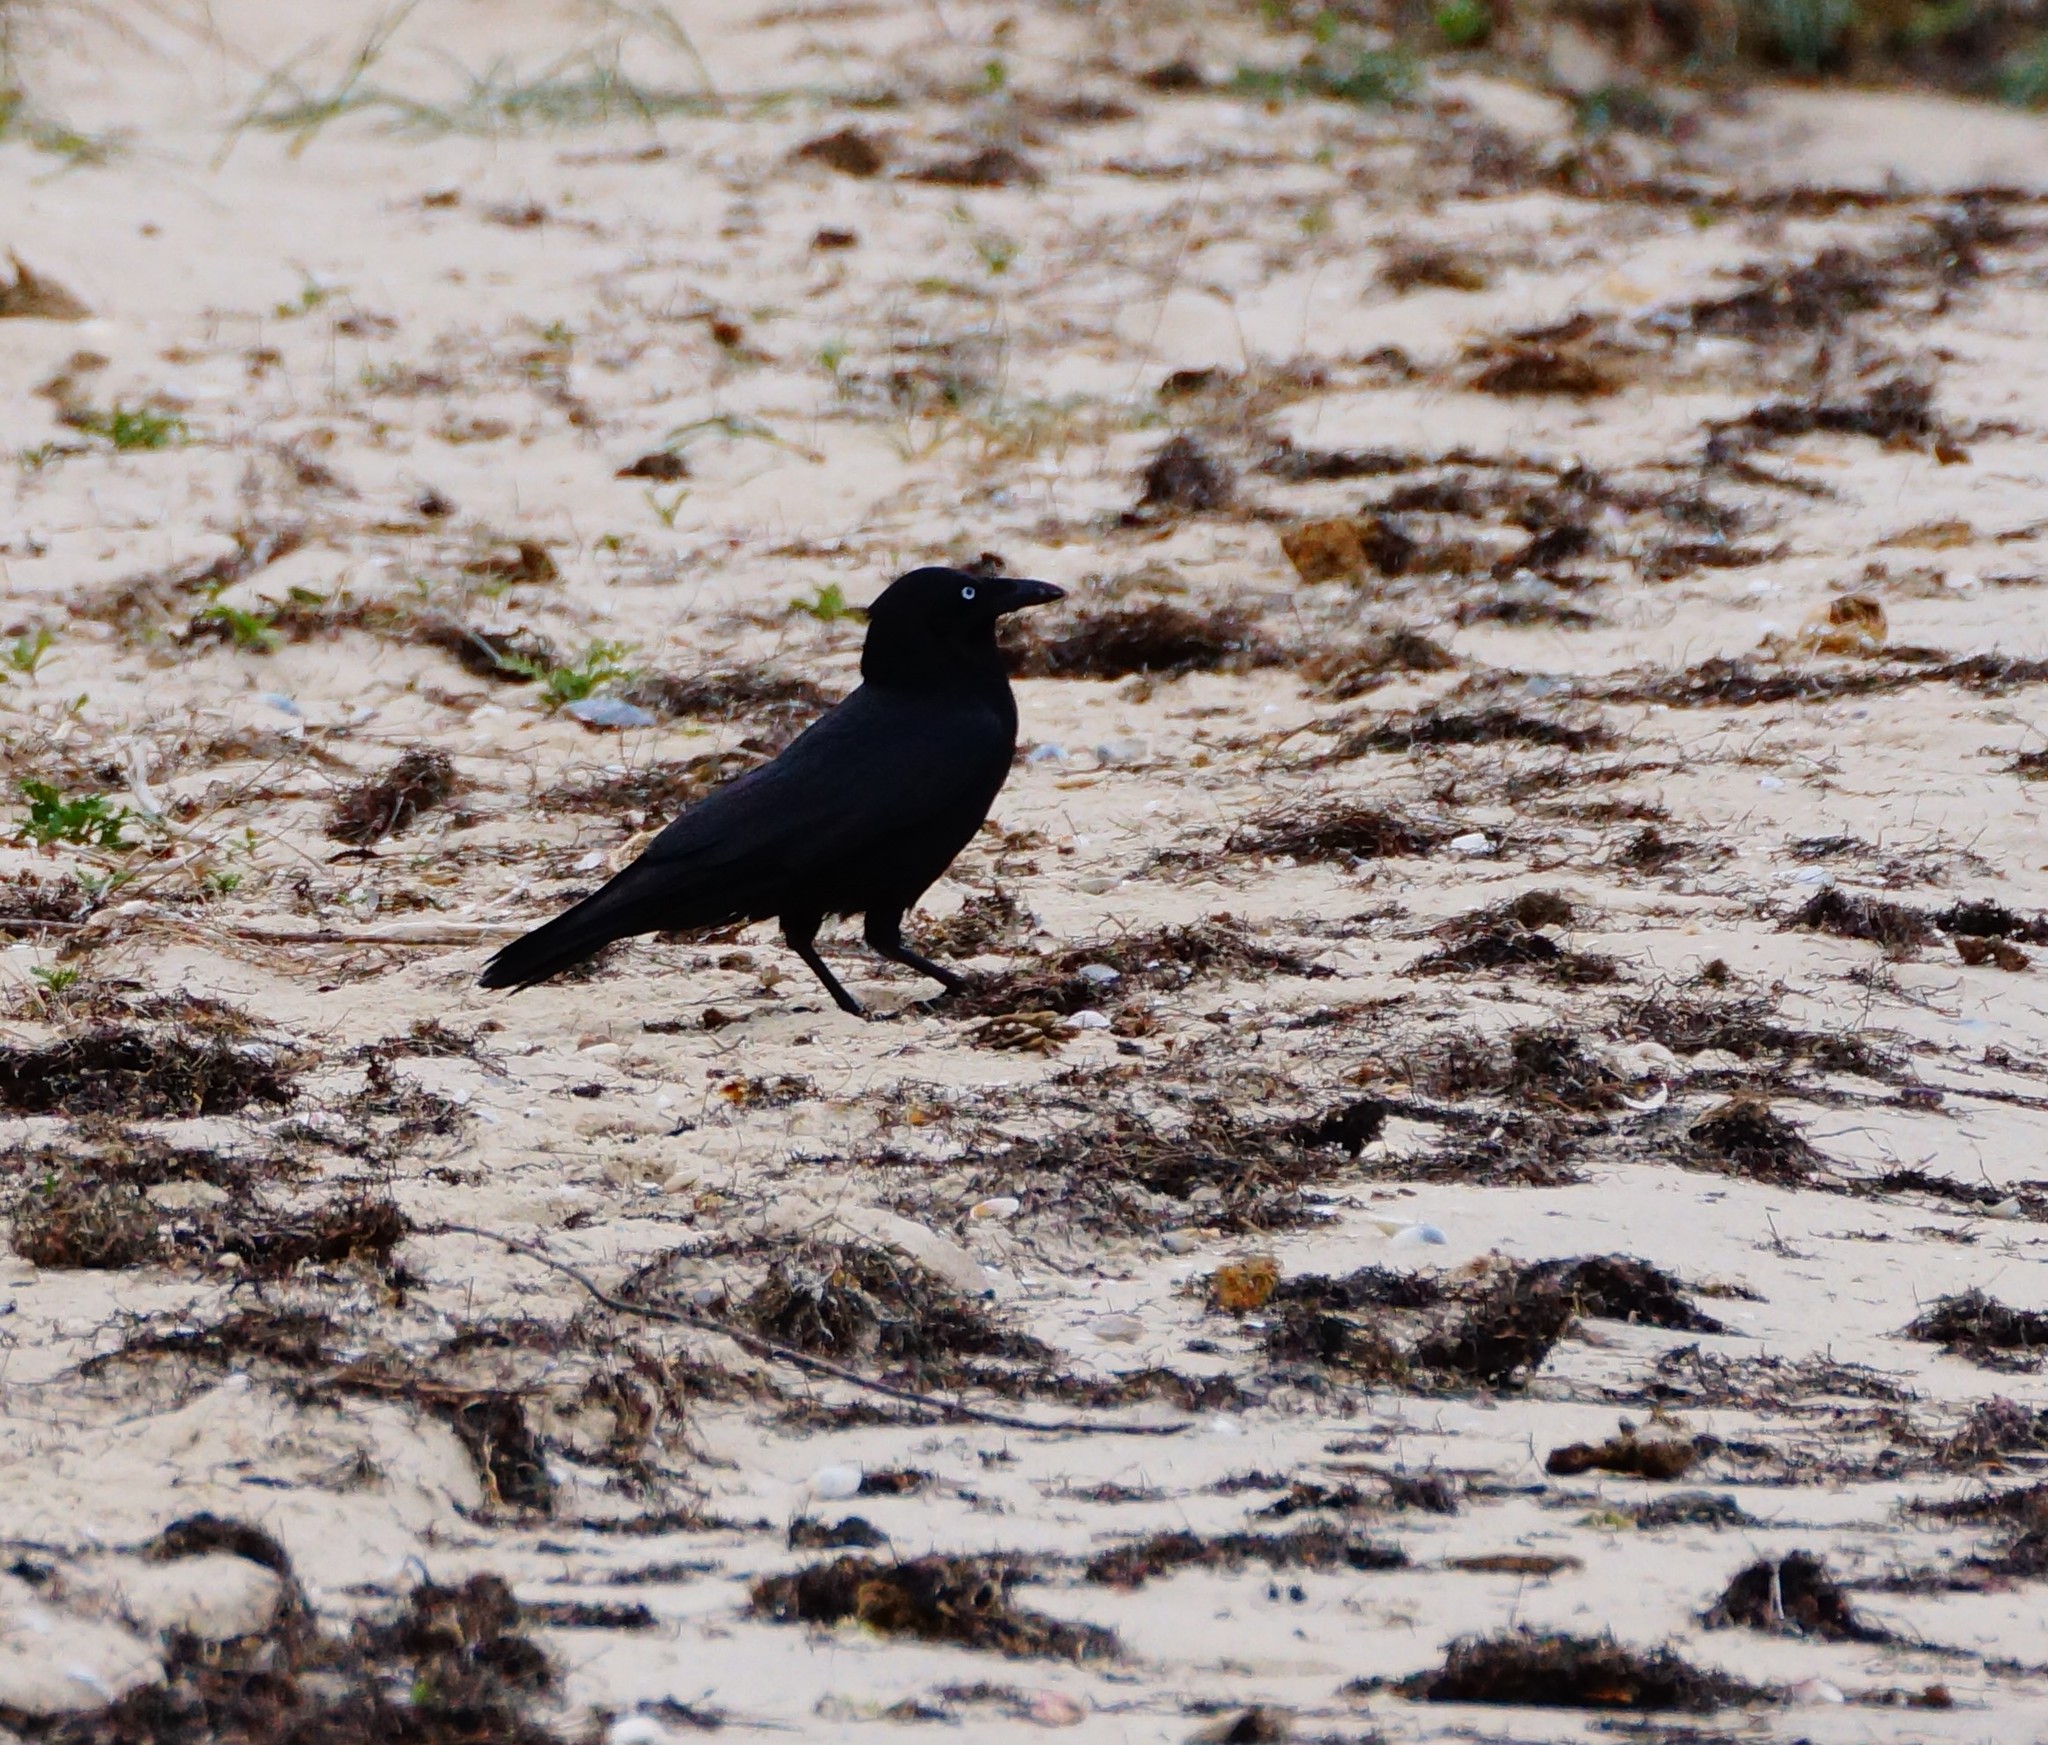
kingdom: Animalia
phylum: Chordata
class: Aves
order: Passeriformes
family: Corvidae
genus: Corvus
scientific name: Corvus mellori
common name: Little raven
